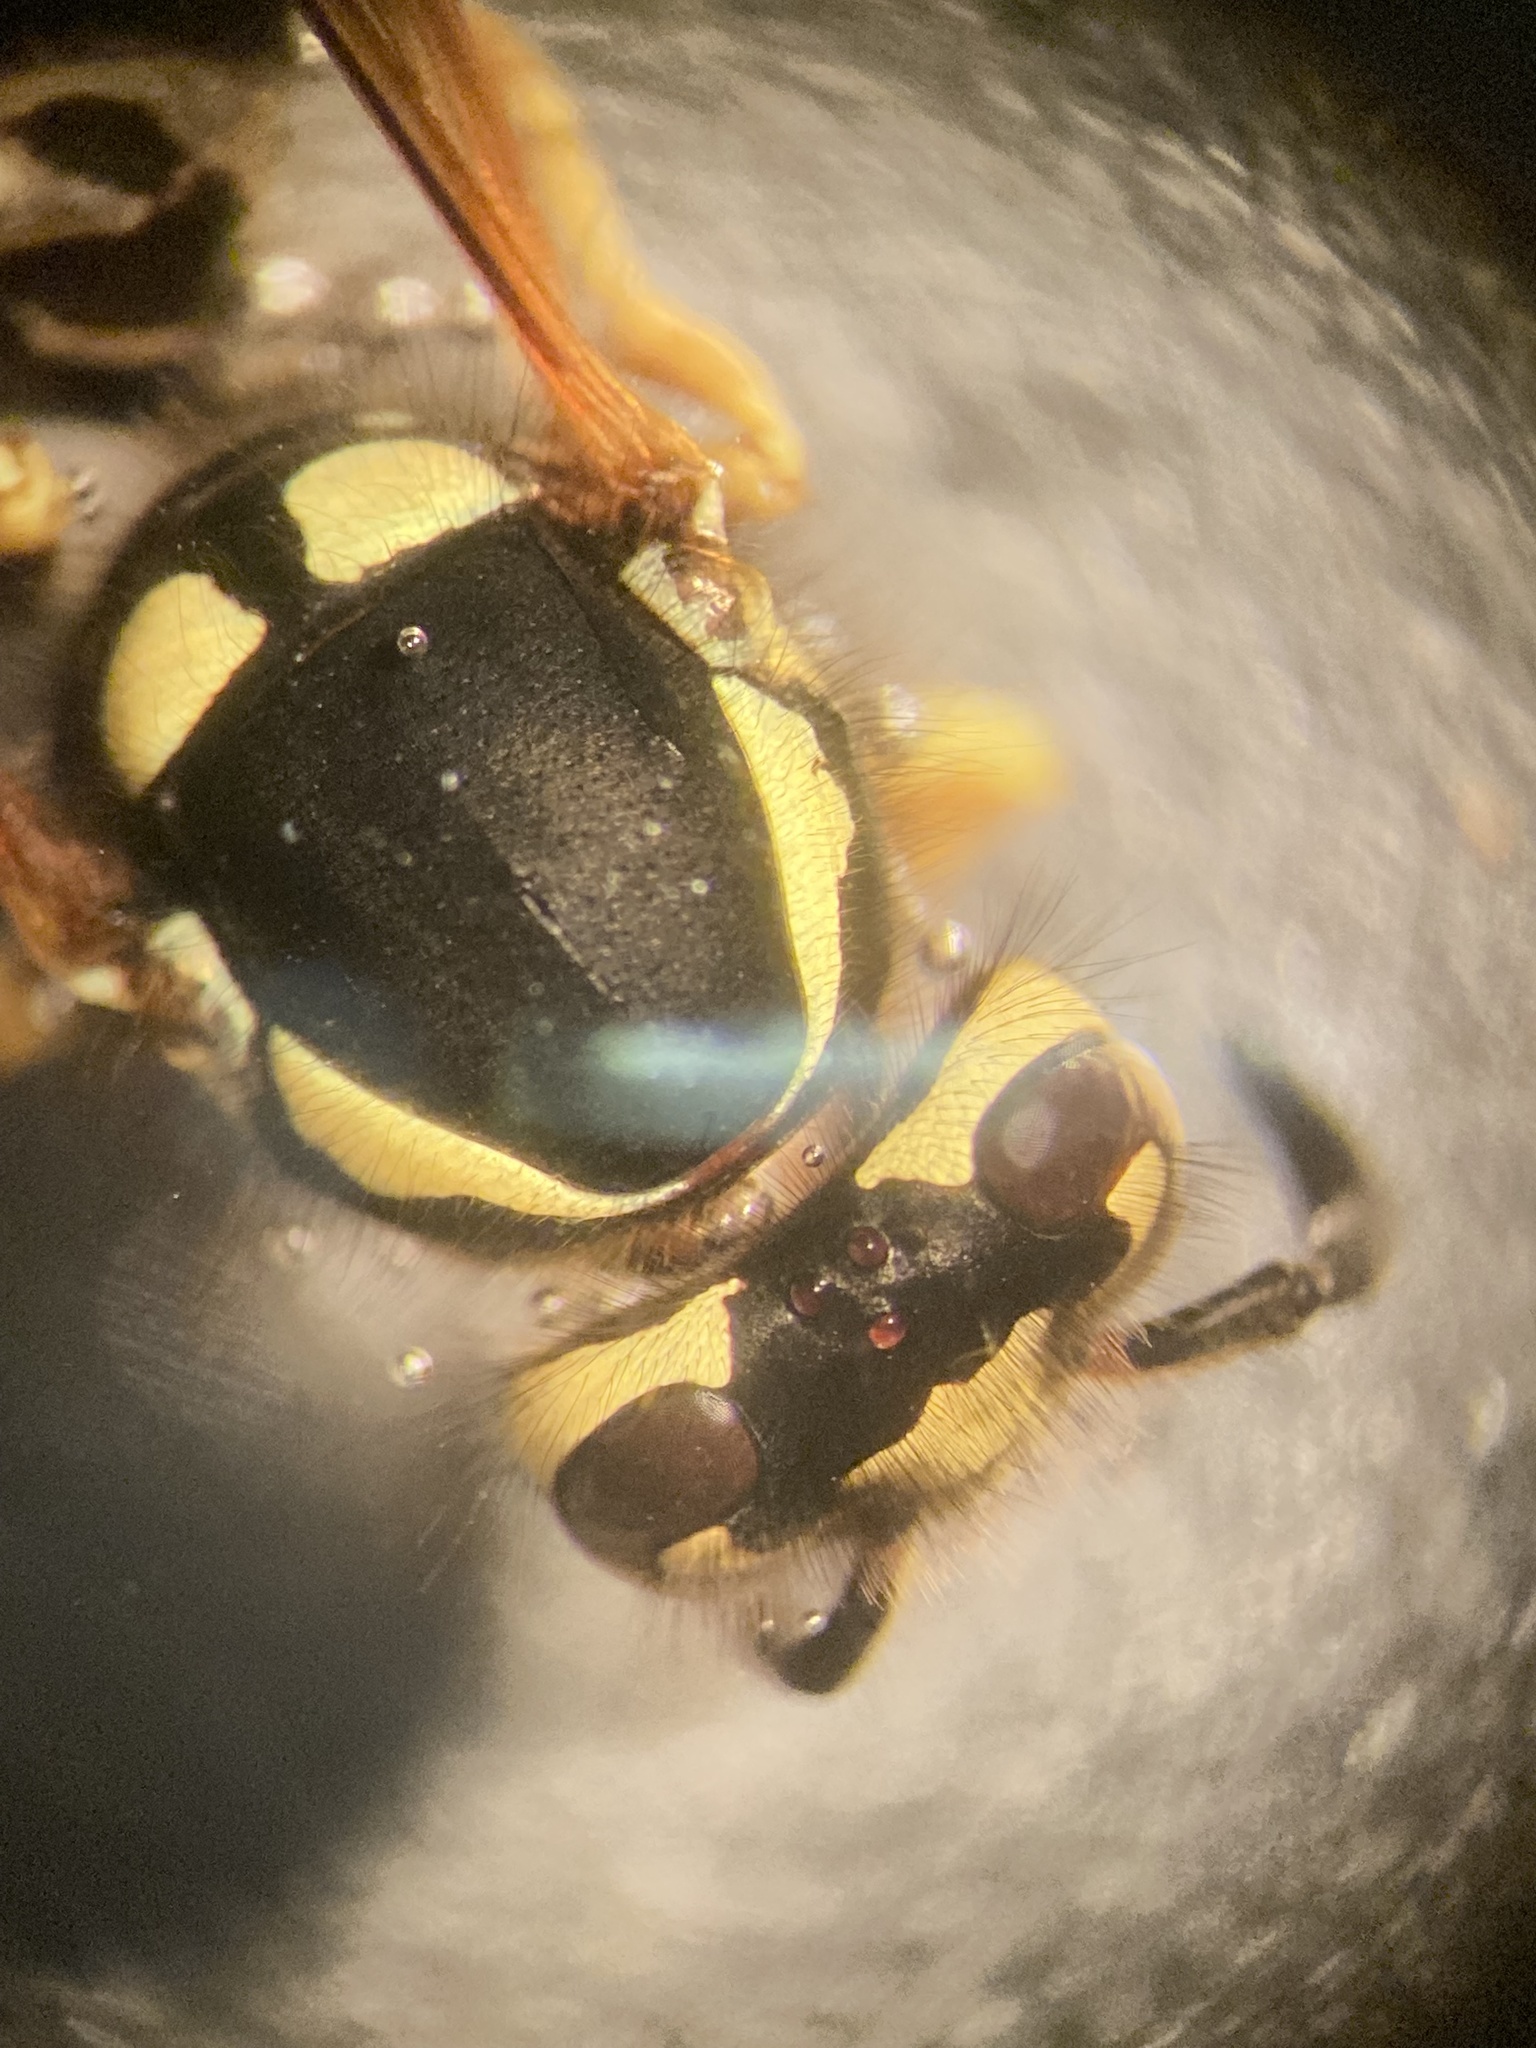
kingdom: Animalia
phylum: Arthropoda
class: Insecta
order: Hymenoptera
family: Vespidae
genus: Vespula
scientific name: Vespula atropilosa
